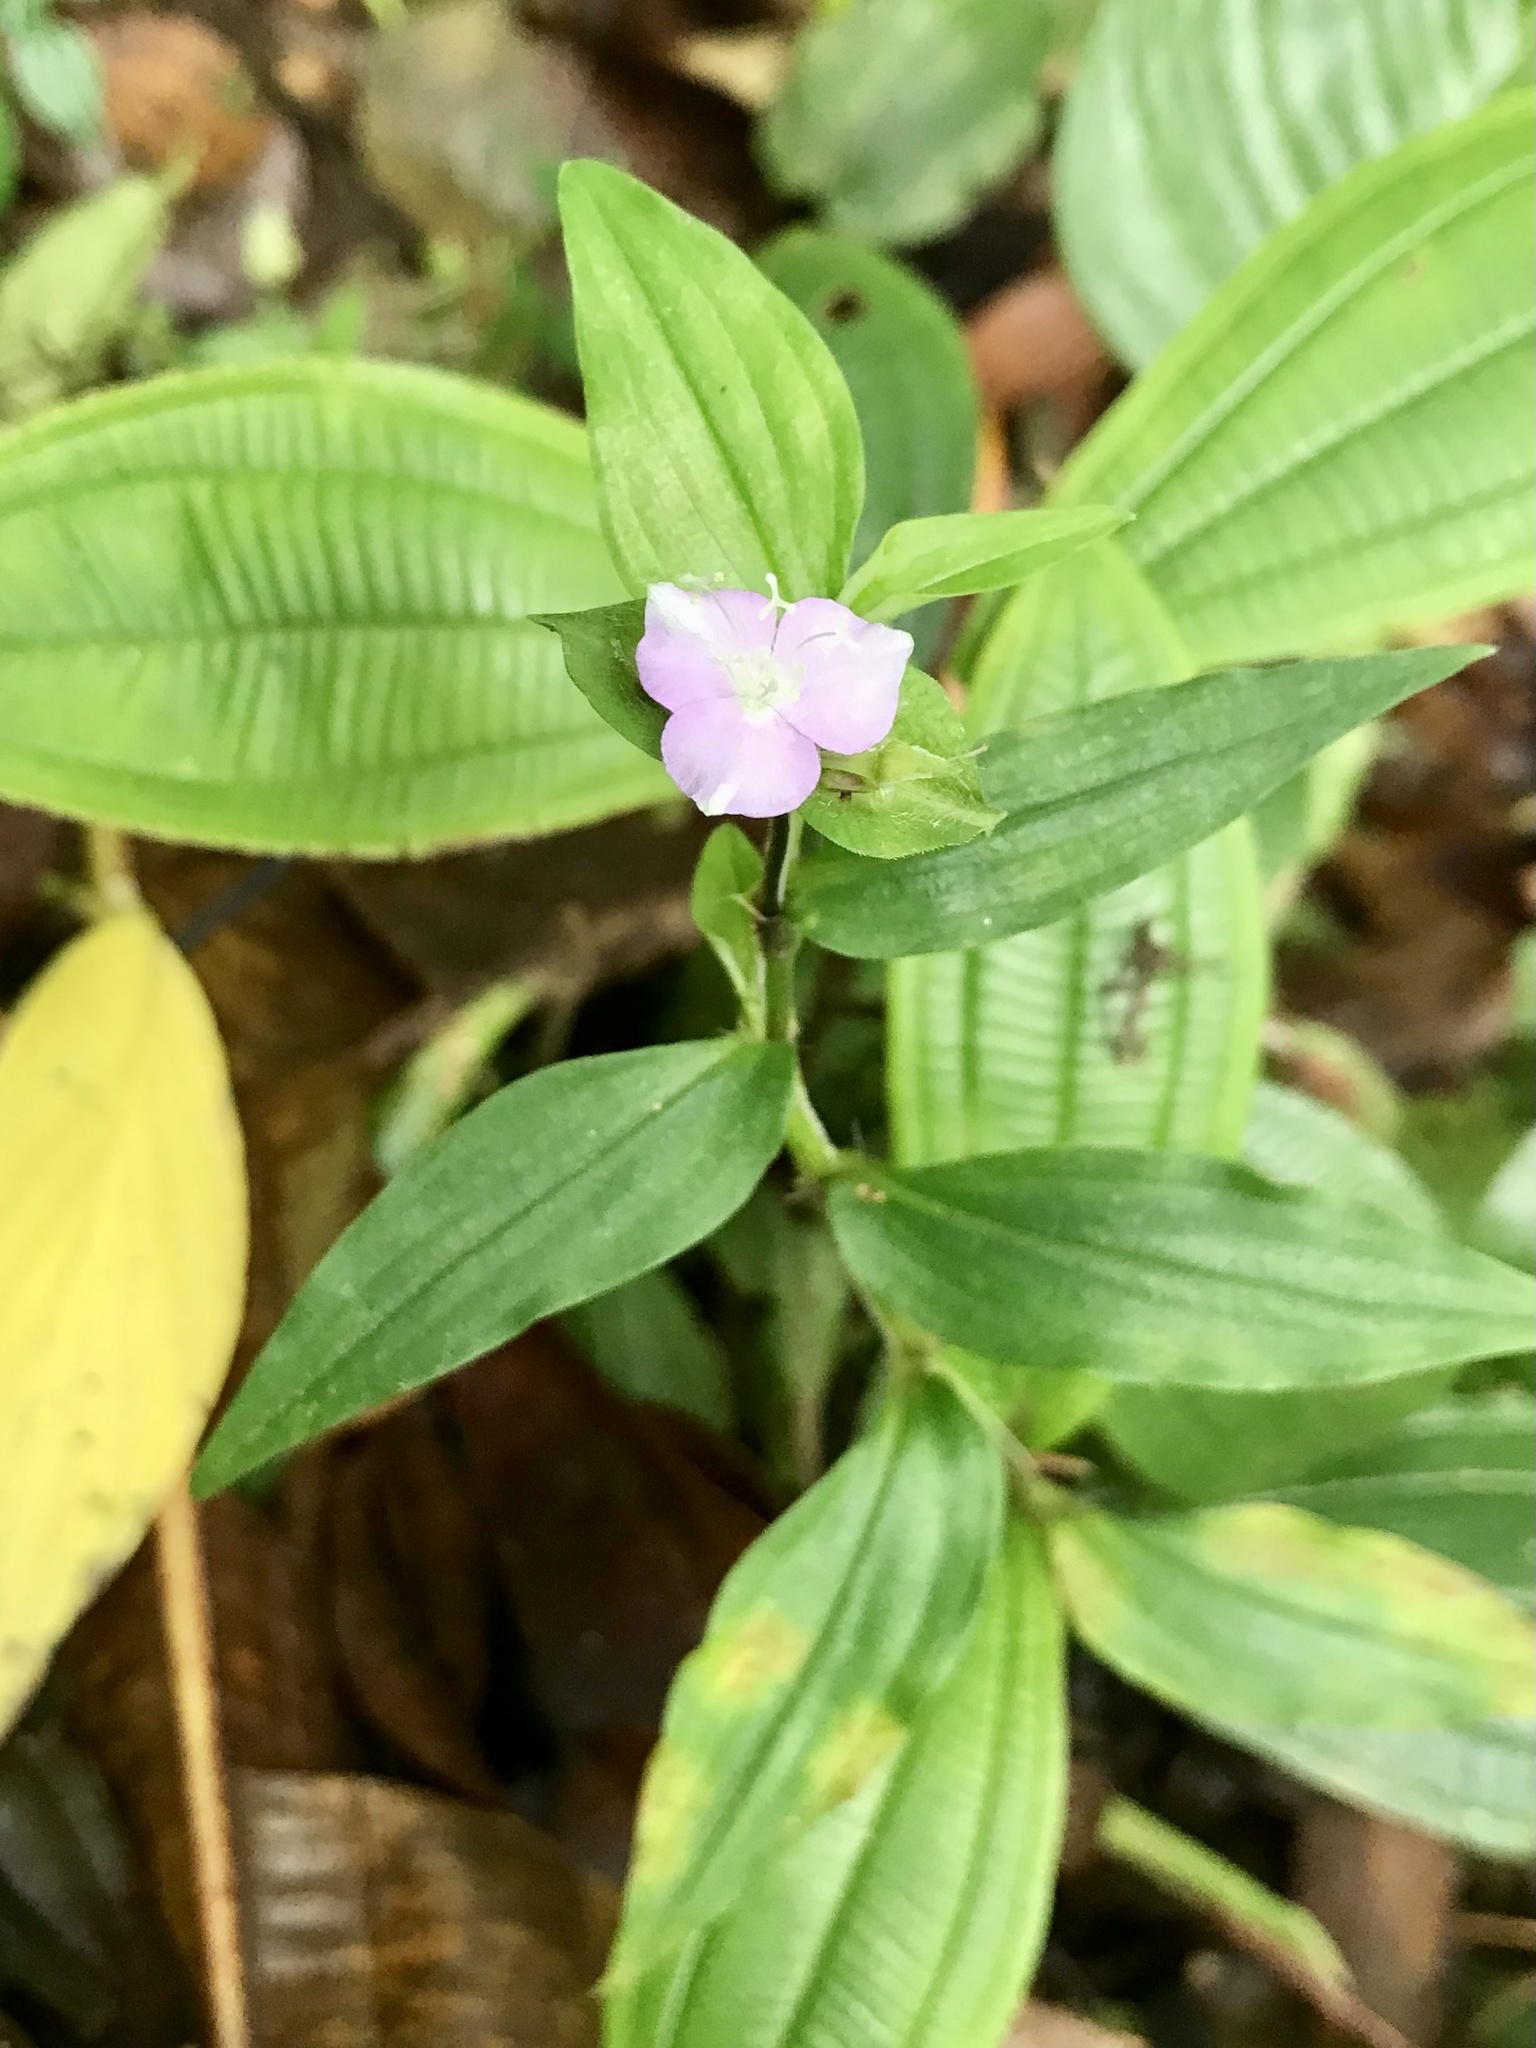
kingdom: Plantae
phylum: Tracheophyta
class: Liliopsida
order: Commelinales
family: Commelinaceae
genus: Tradescantia
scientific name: Tradescantia poelliae
